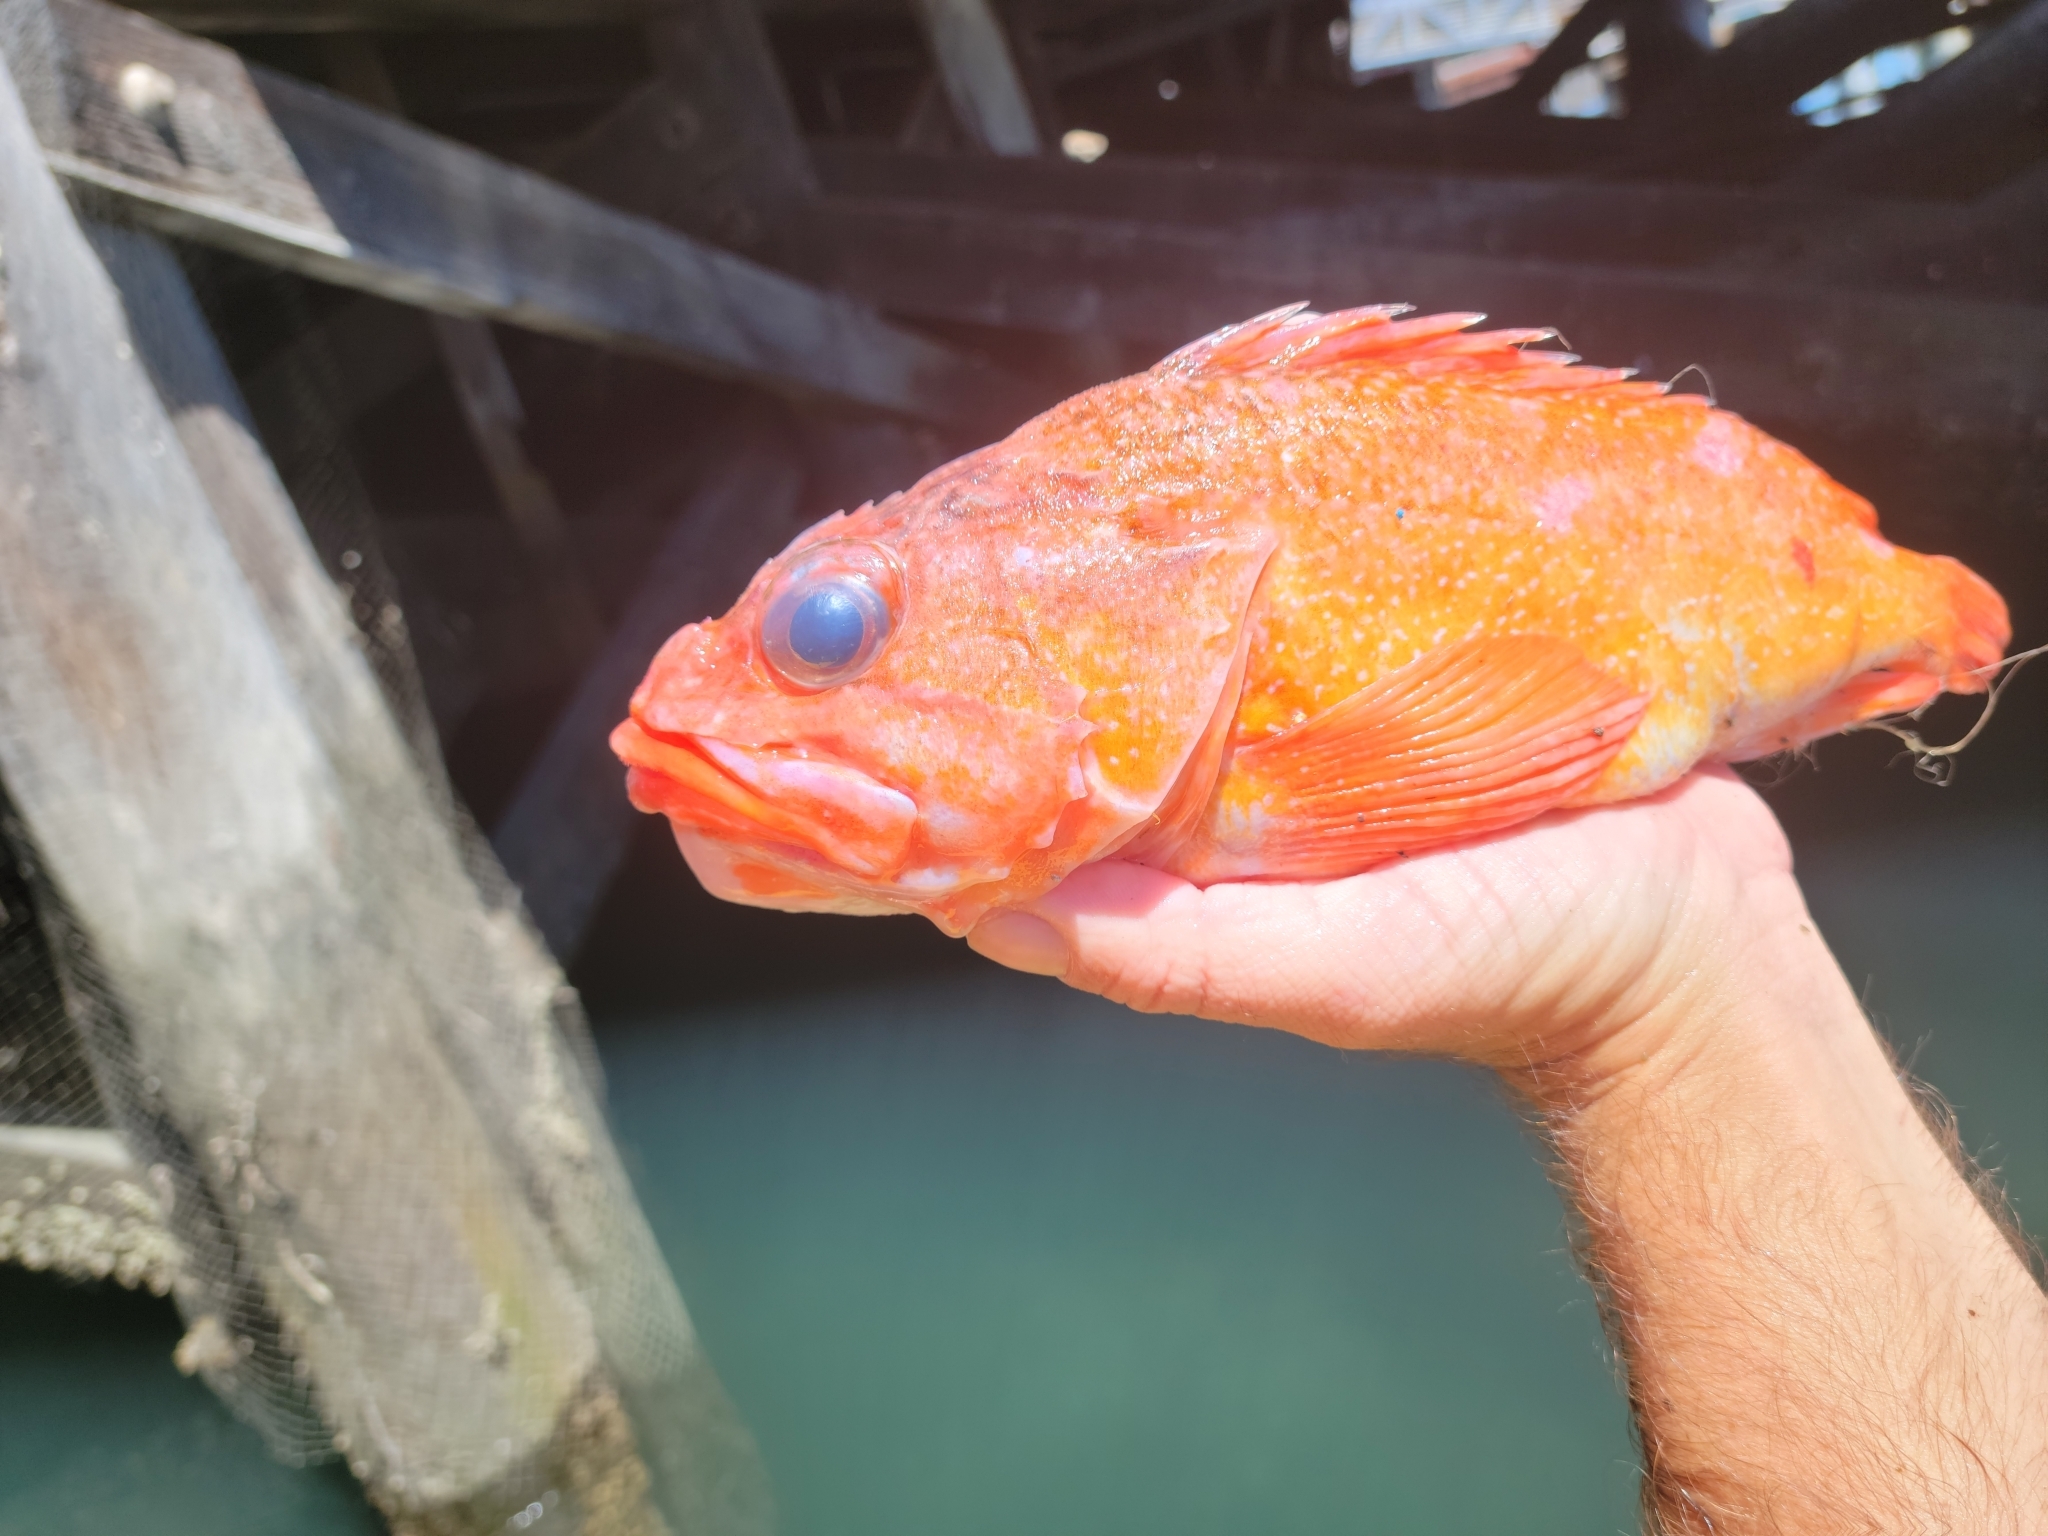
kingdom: Animalia
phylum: Chordata
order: Scorpaeniformes
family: Sebastidae
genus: Sebastes
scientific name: Sebastes constellatus
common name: Starry rockfish
